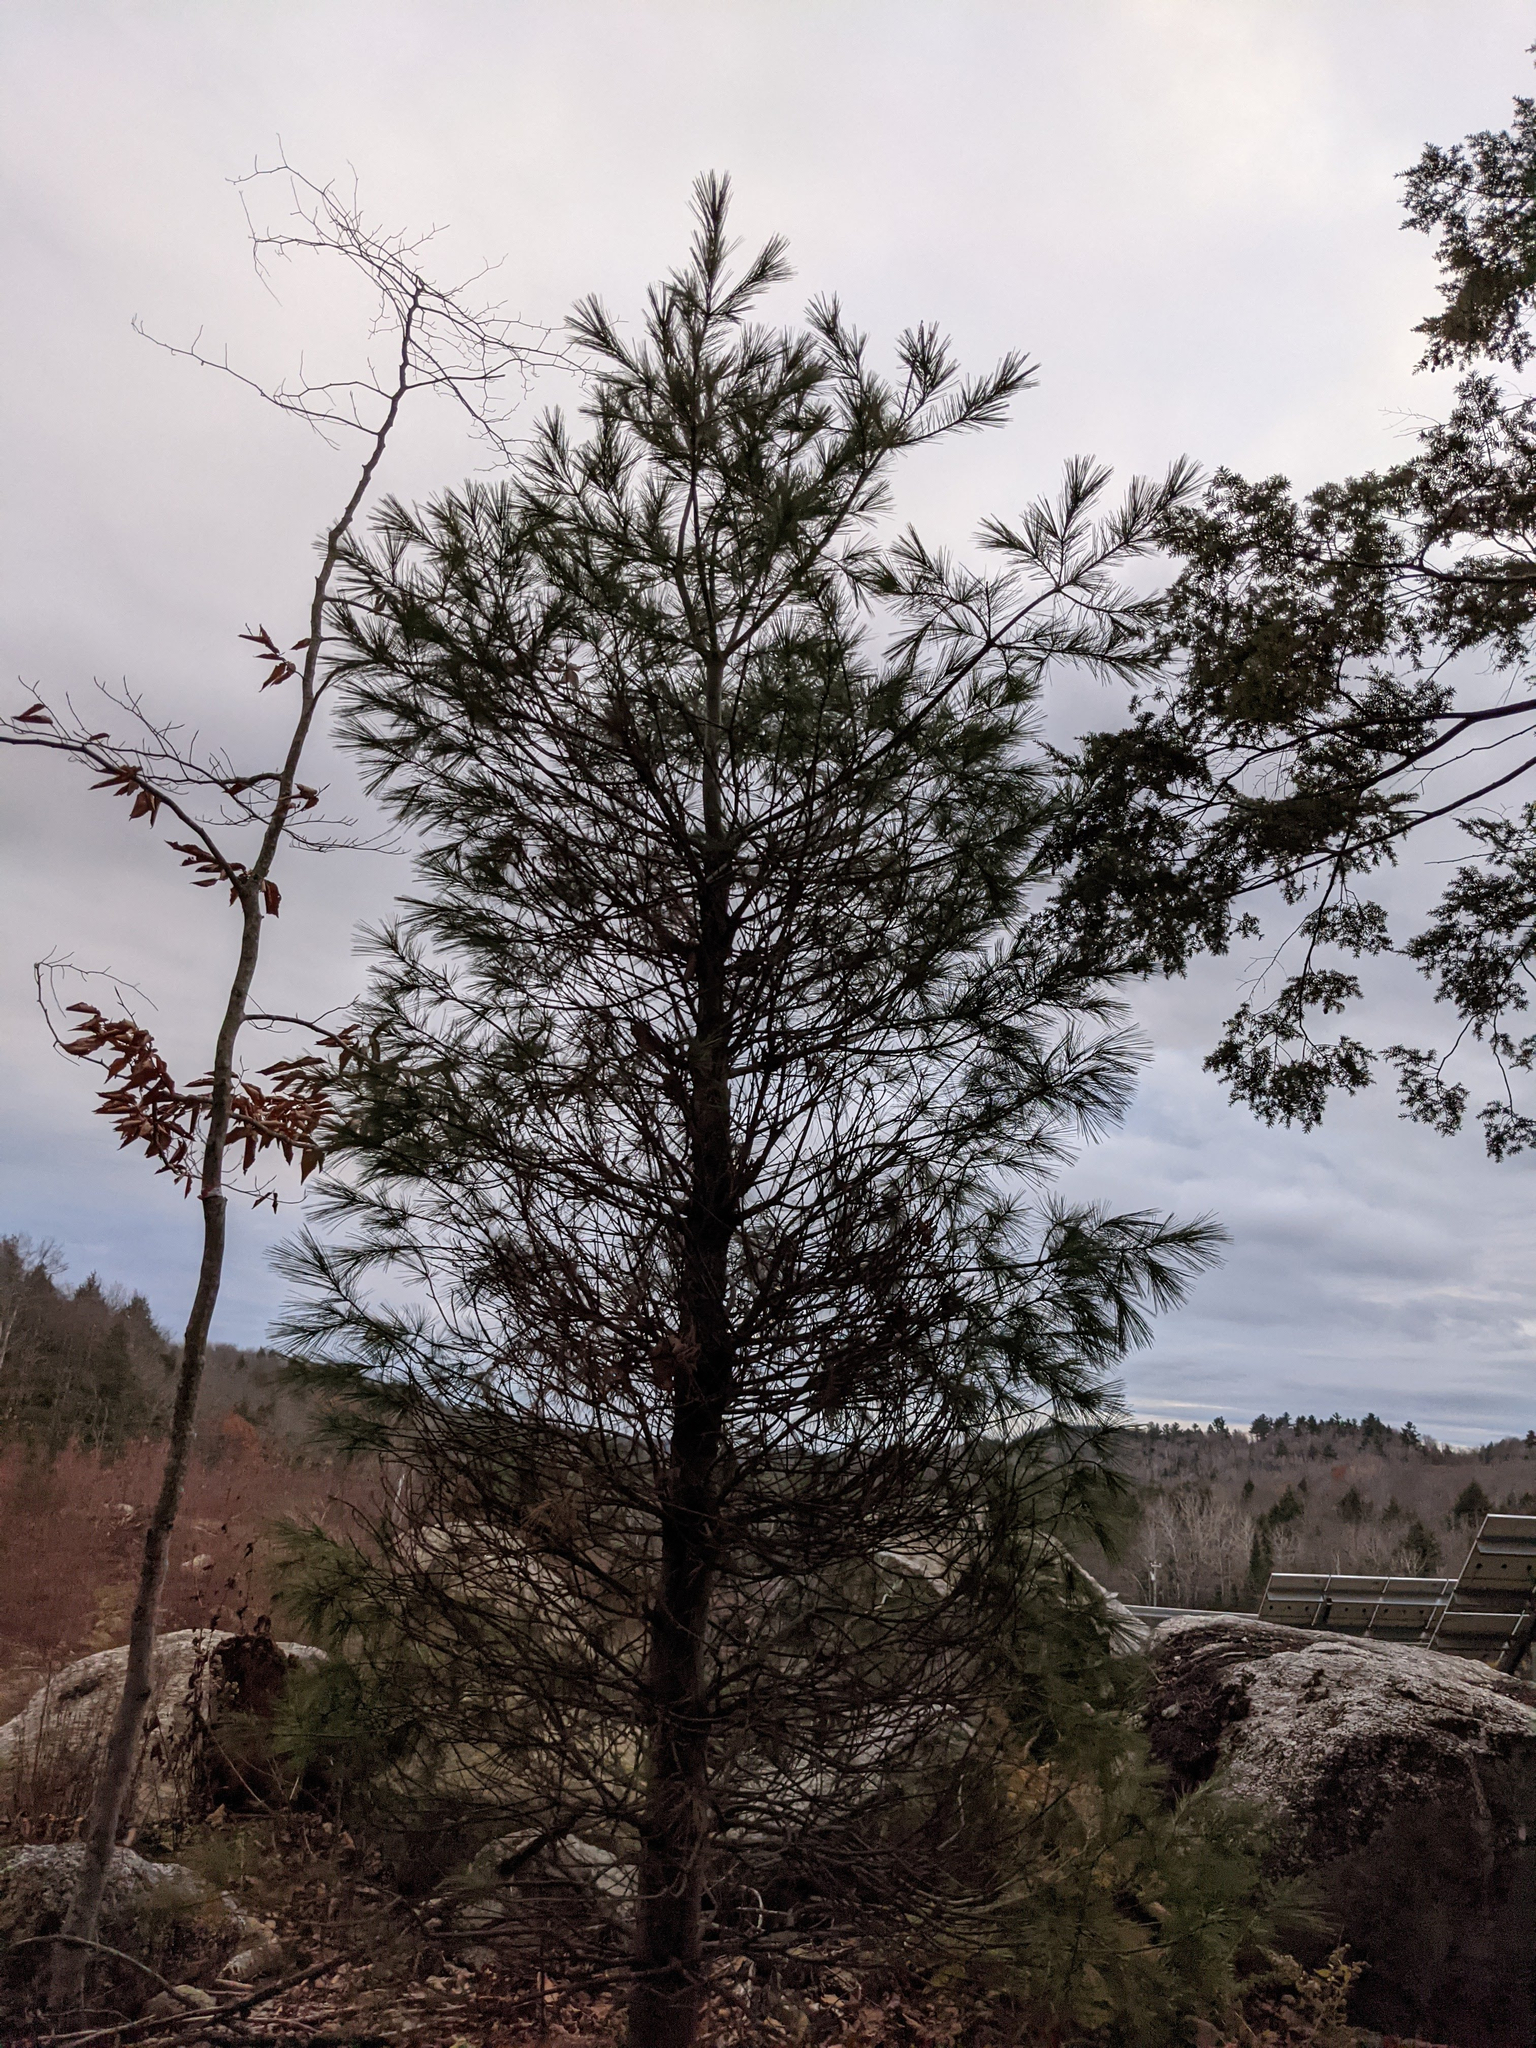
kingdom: Plantae
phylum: Tracheophyta
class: Pinopsida
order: Pinales
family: Pinaceae
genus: Pinus
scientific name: Pinus strobus
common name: Weymouth pine
